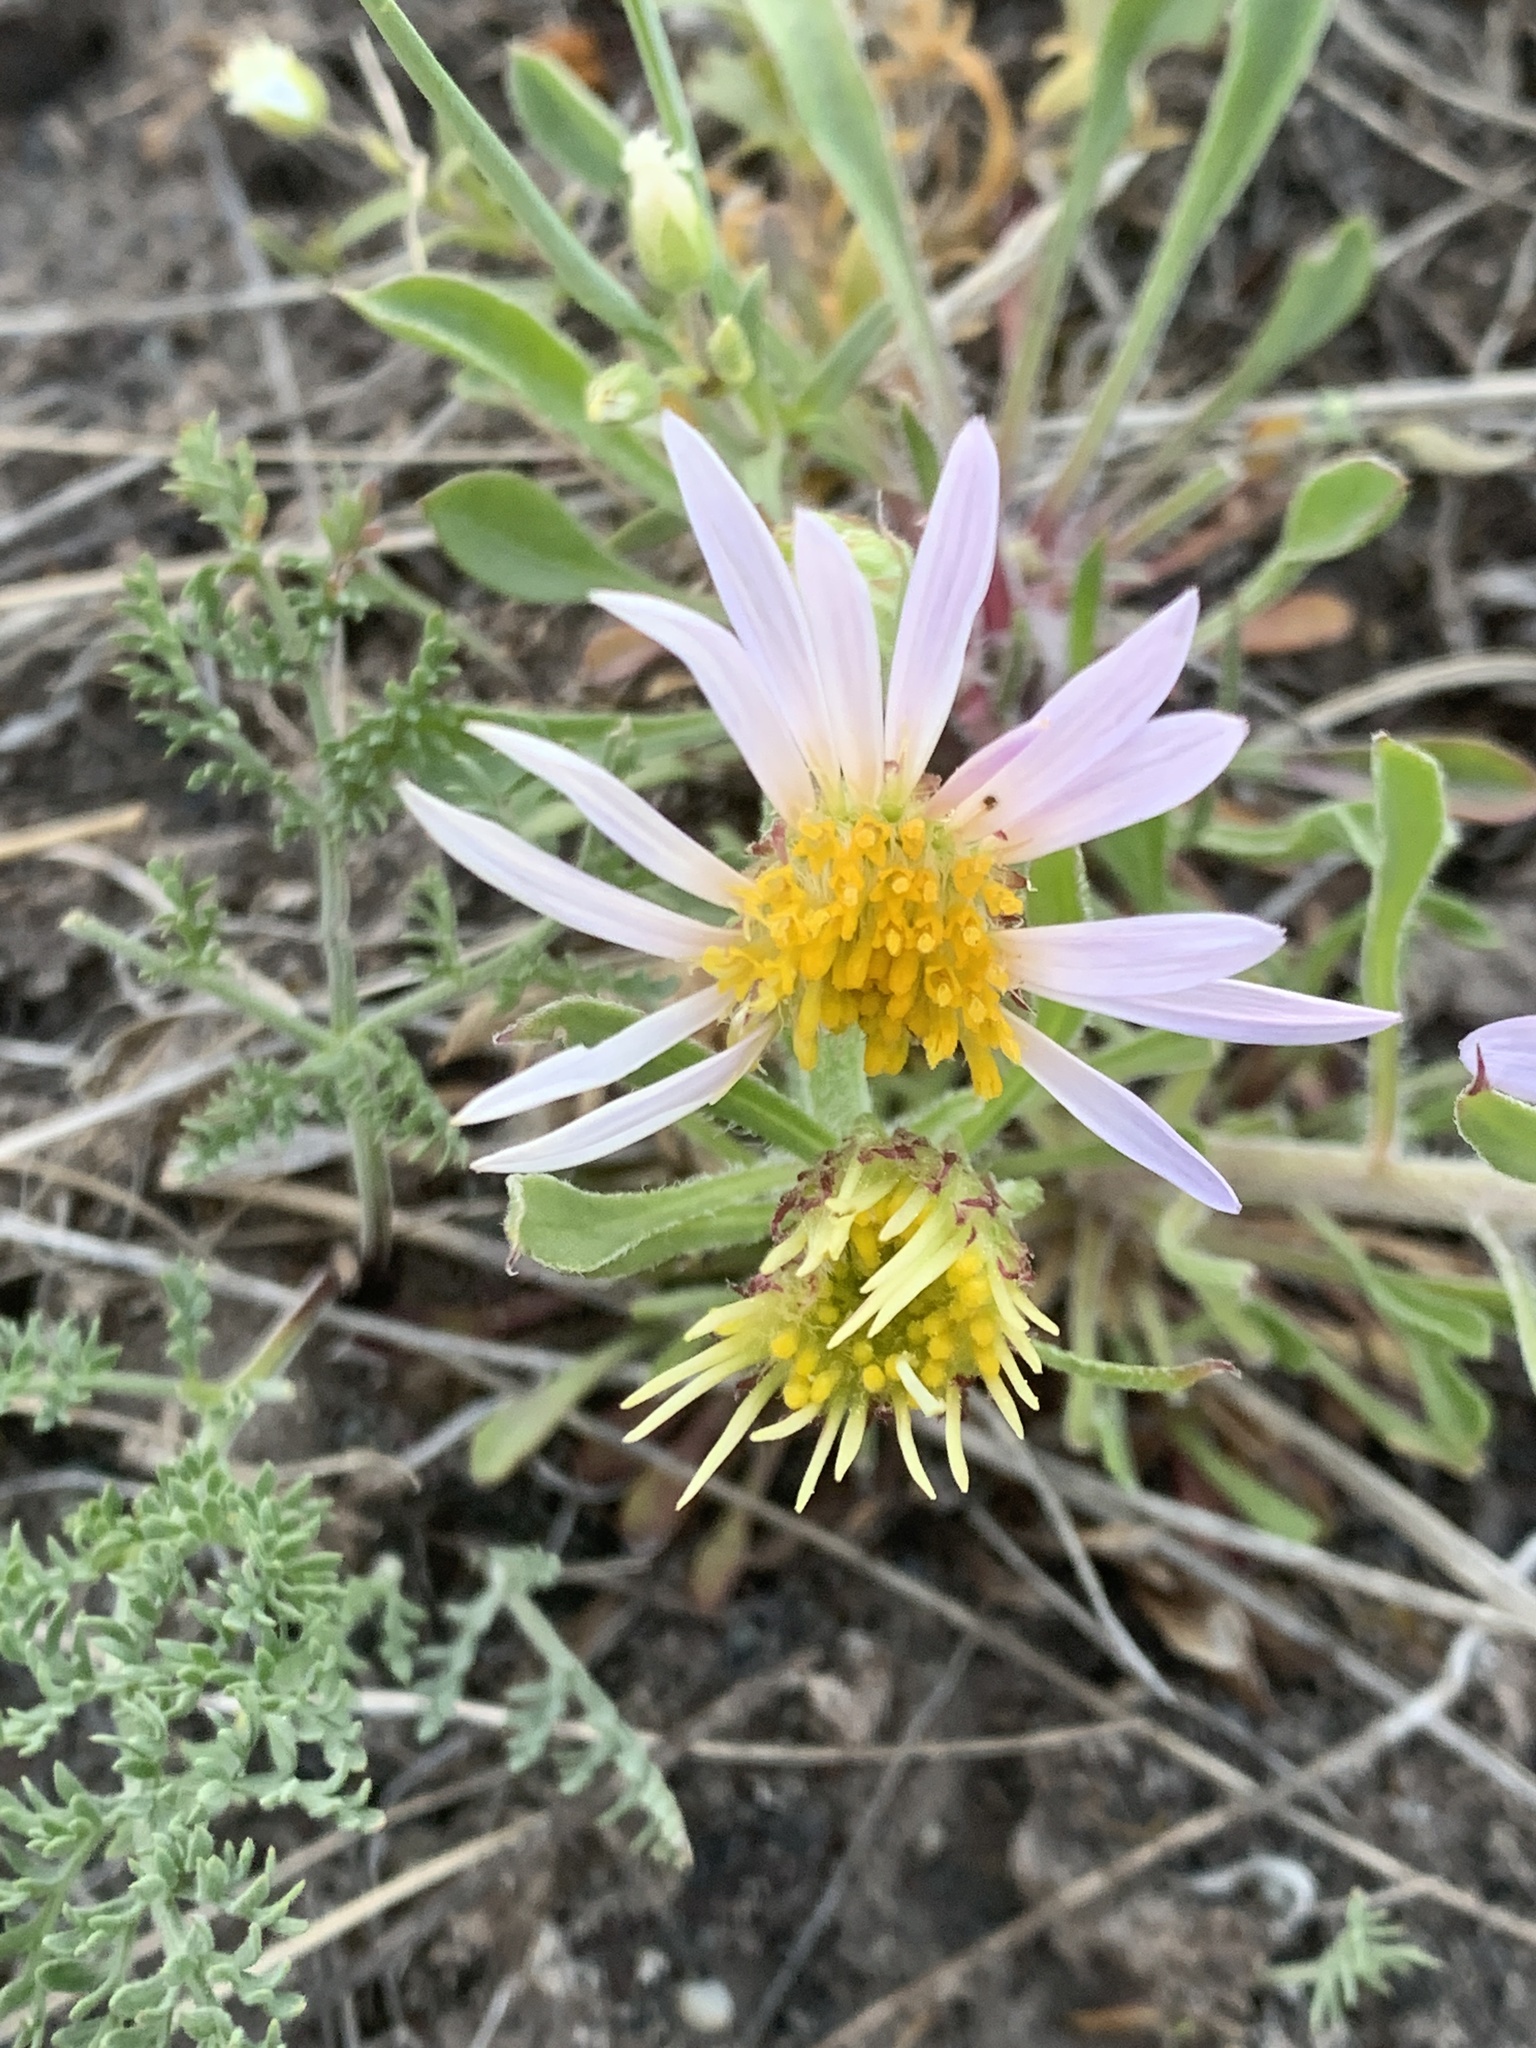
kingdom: Plantae
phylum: Tracheophyta
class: Magnoliopsida
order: Asterales
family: Asteraceae
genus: Townsendia
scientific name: Townsendia parryi
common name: Parry's townsend daisy
